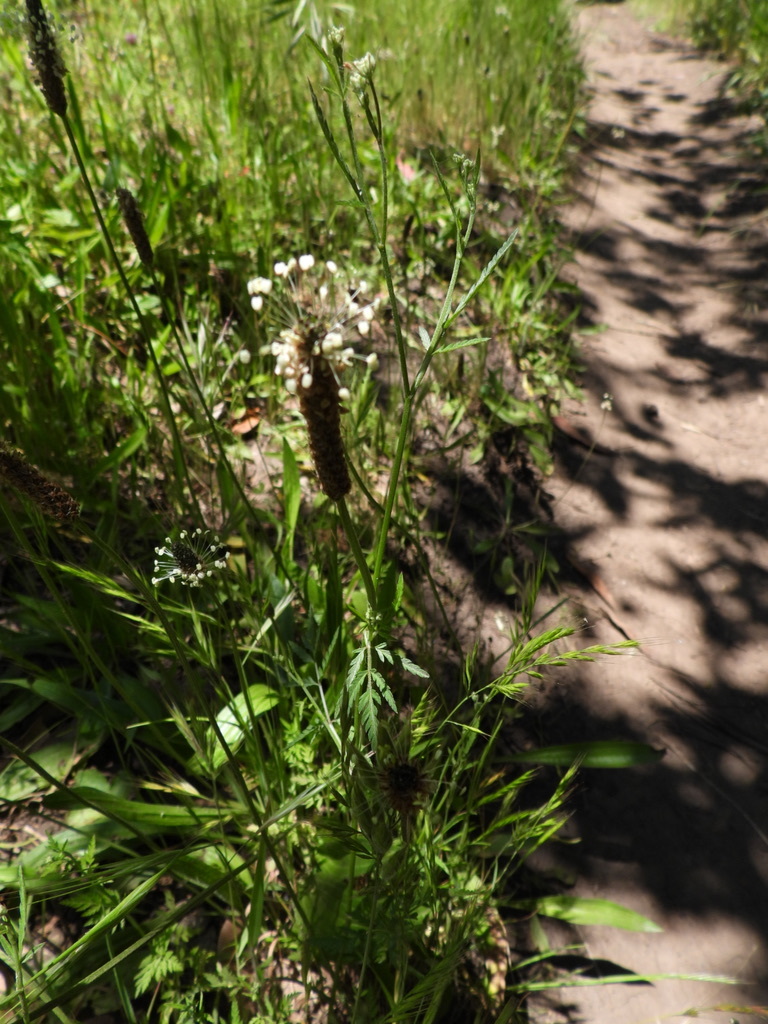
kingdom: Plantae
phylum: Tracheophyta
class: Magnoliopsida
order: Lamiales
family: Plantaginaceae
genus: Plantago
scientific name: Plantago lanceolata
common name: Ribwort plantain
